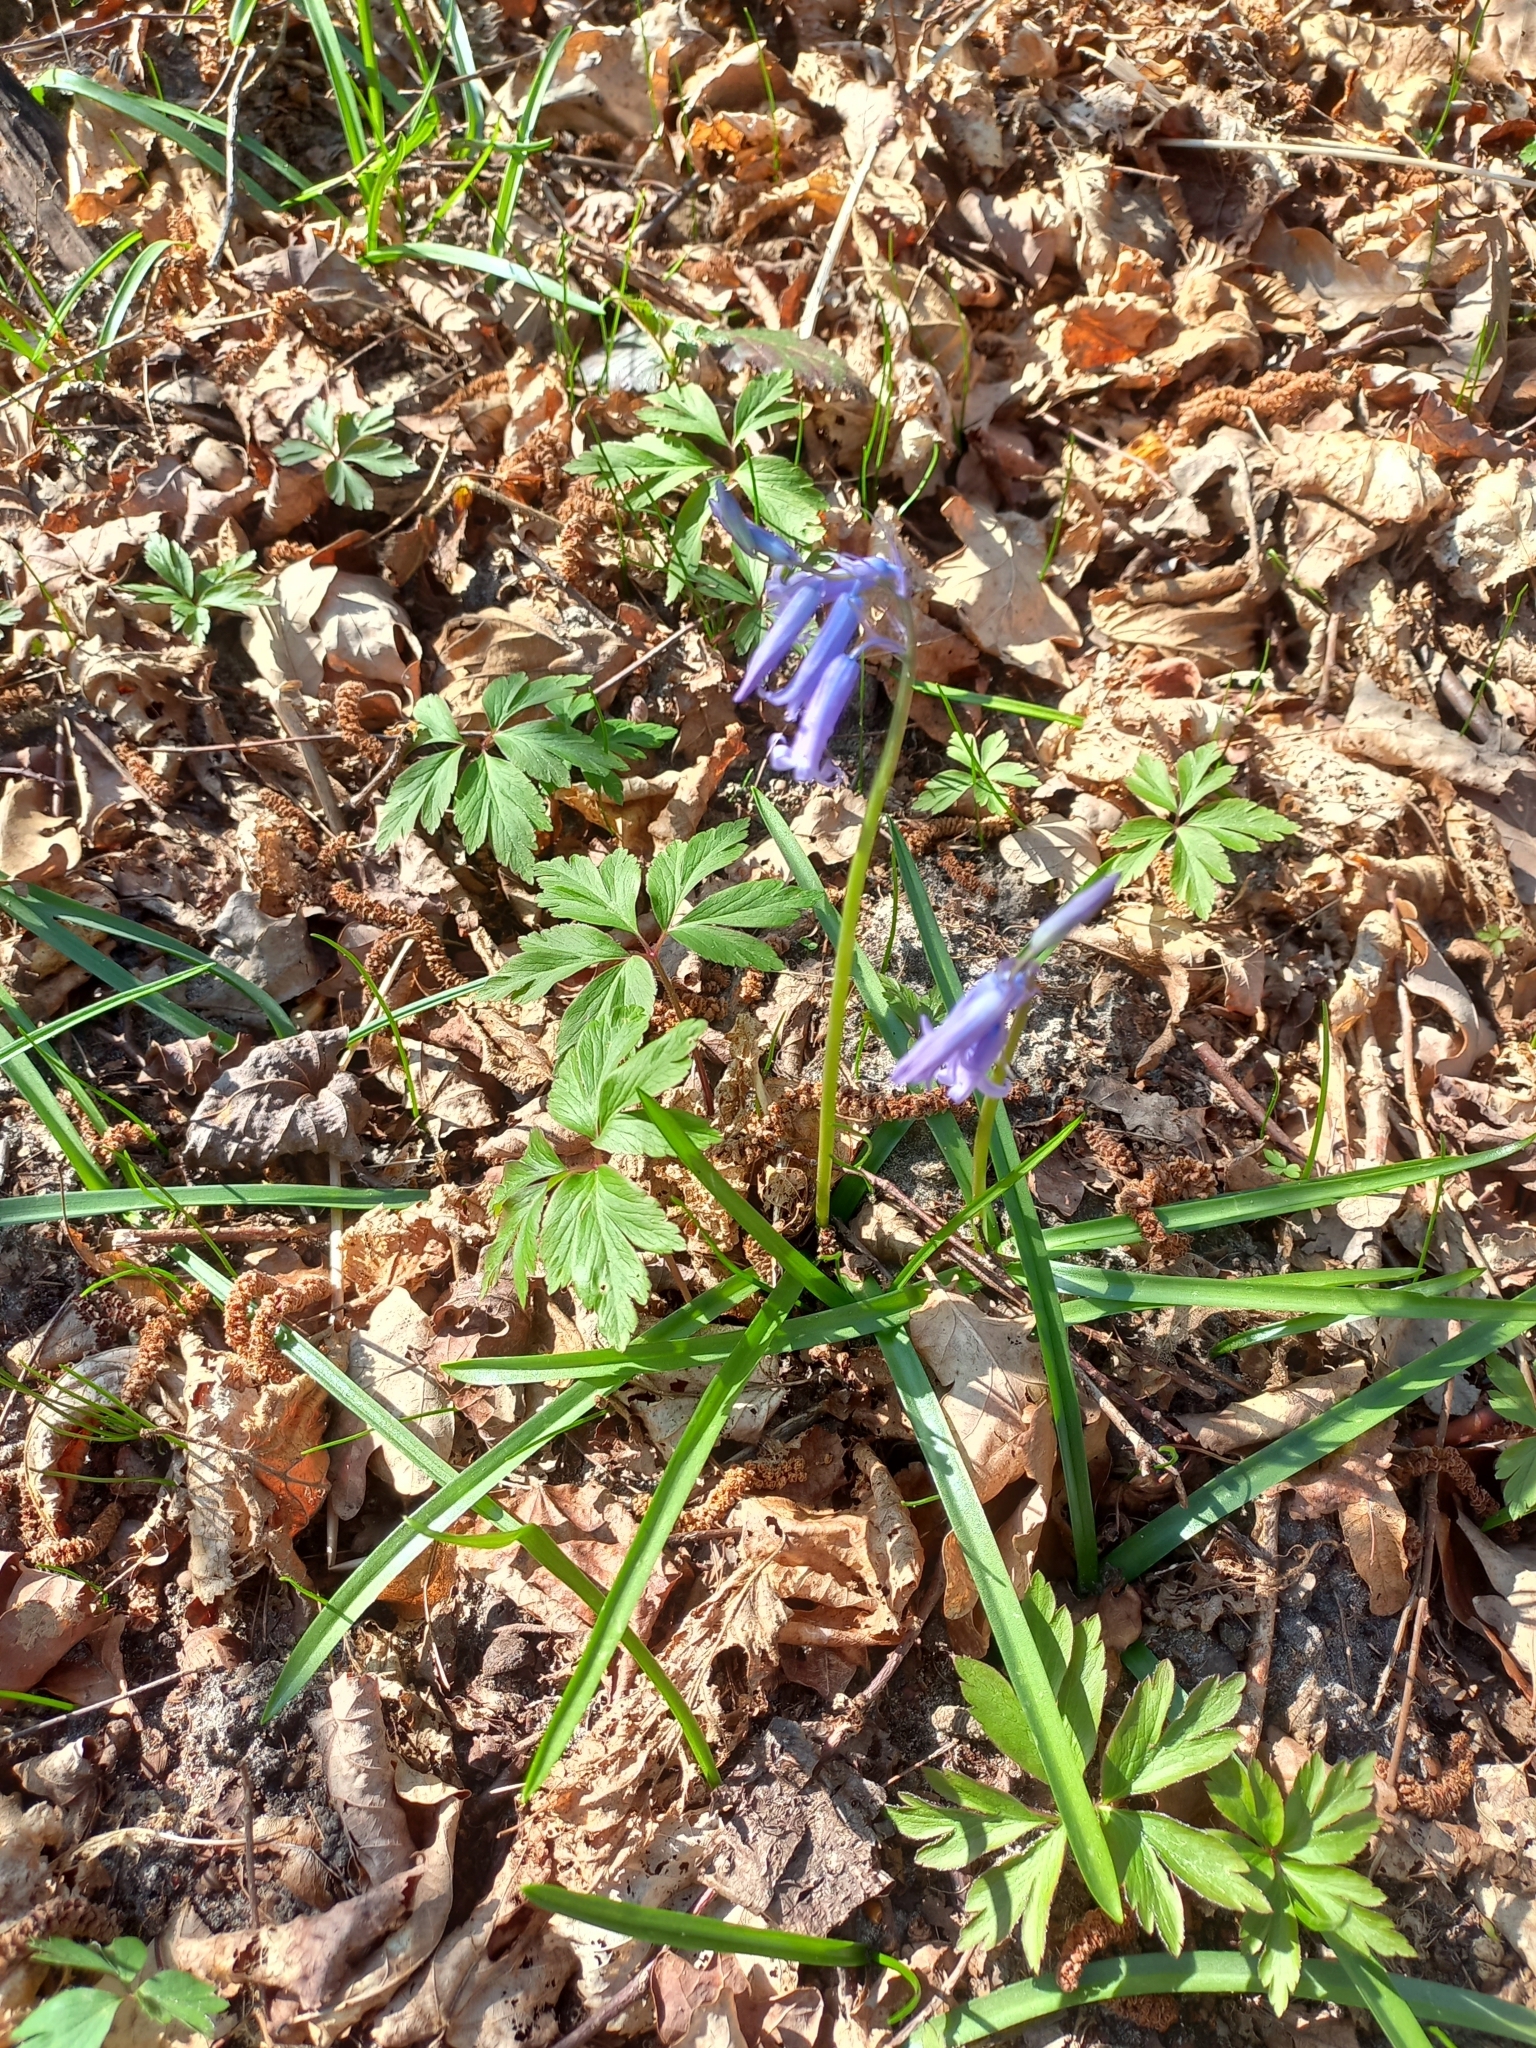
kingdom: Plantae
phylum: Tracheophyta
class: Liliopsida
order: Asparagales
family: Asparagaceae
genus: Hyacinthoides
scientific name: Hyacinthoides non-scripta
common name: Bluebell
